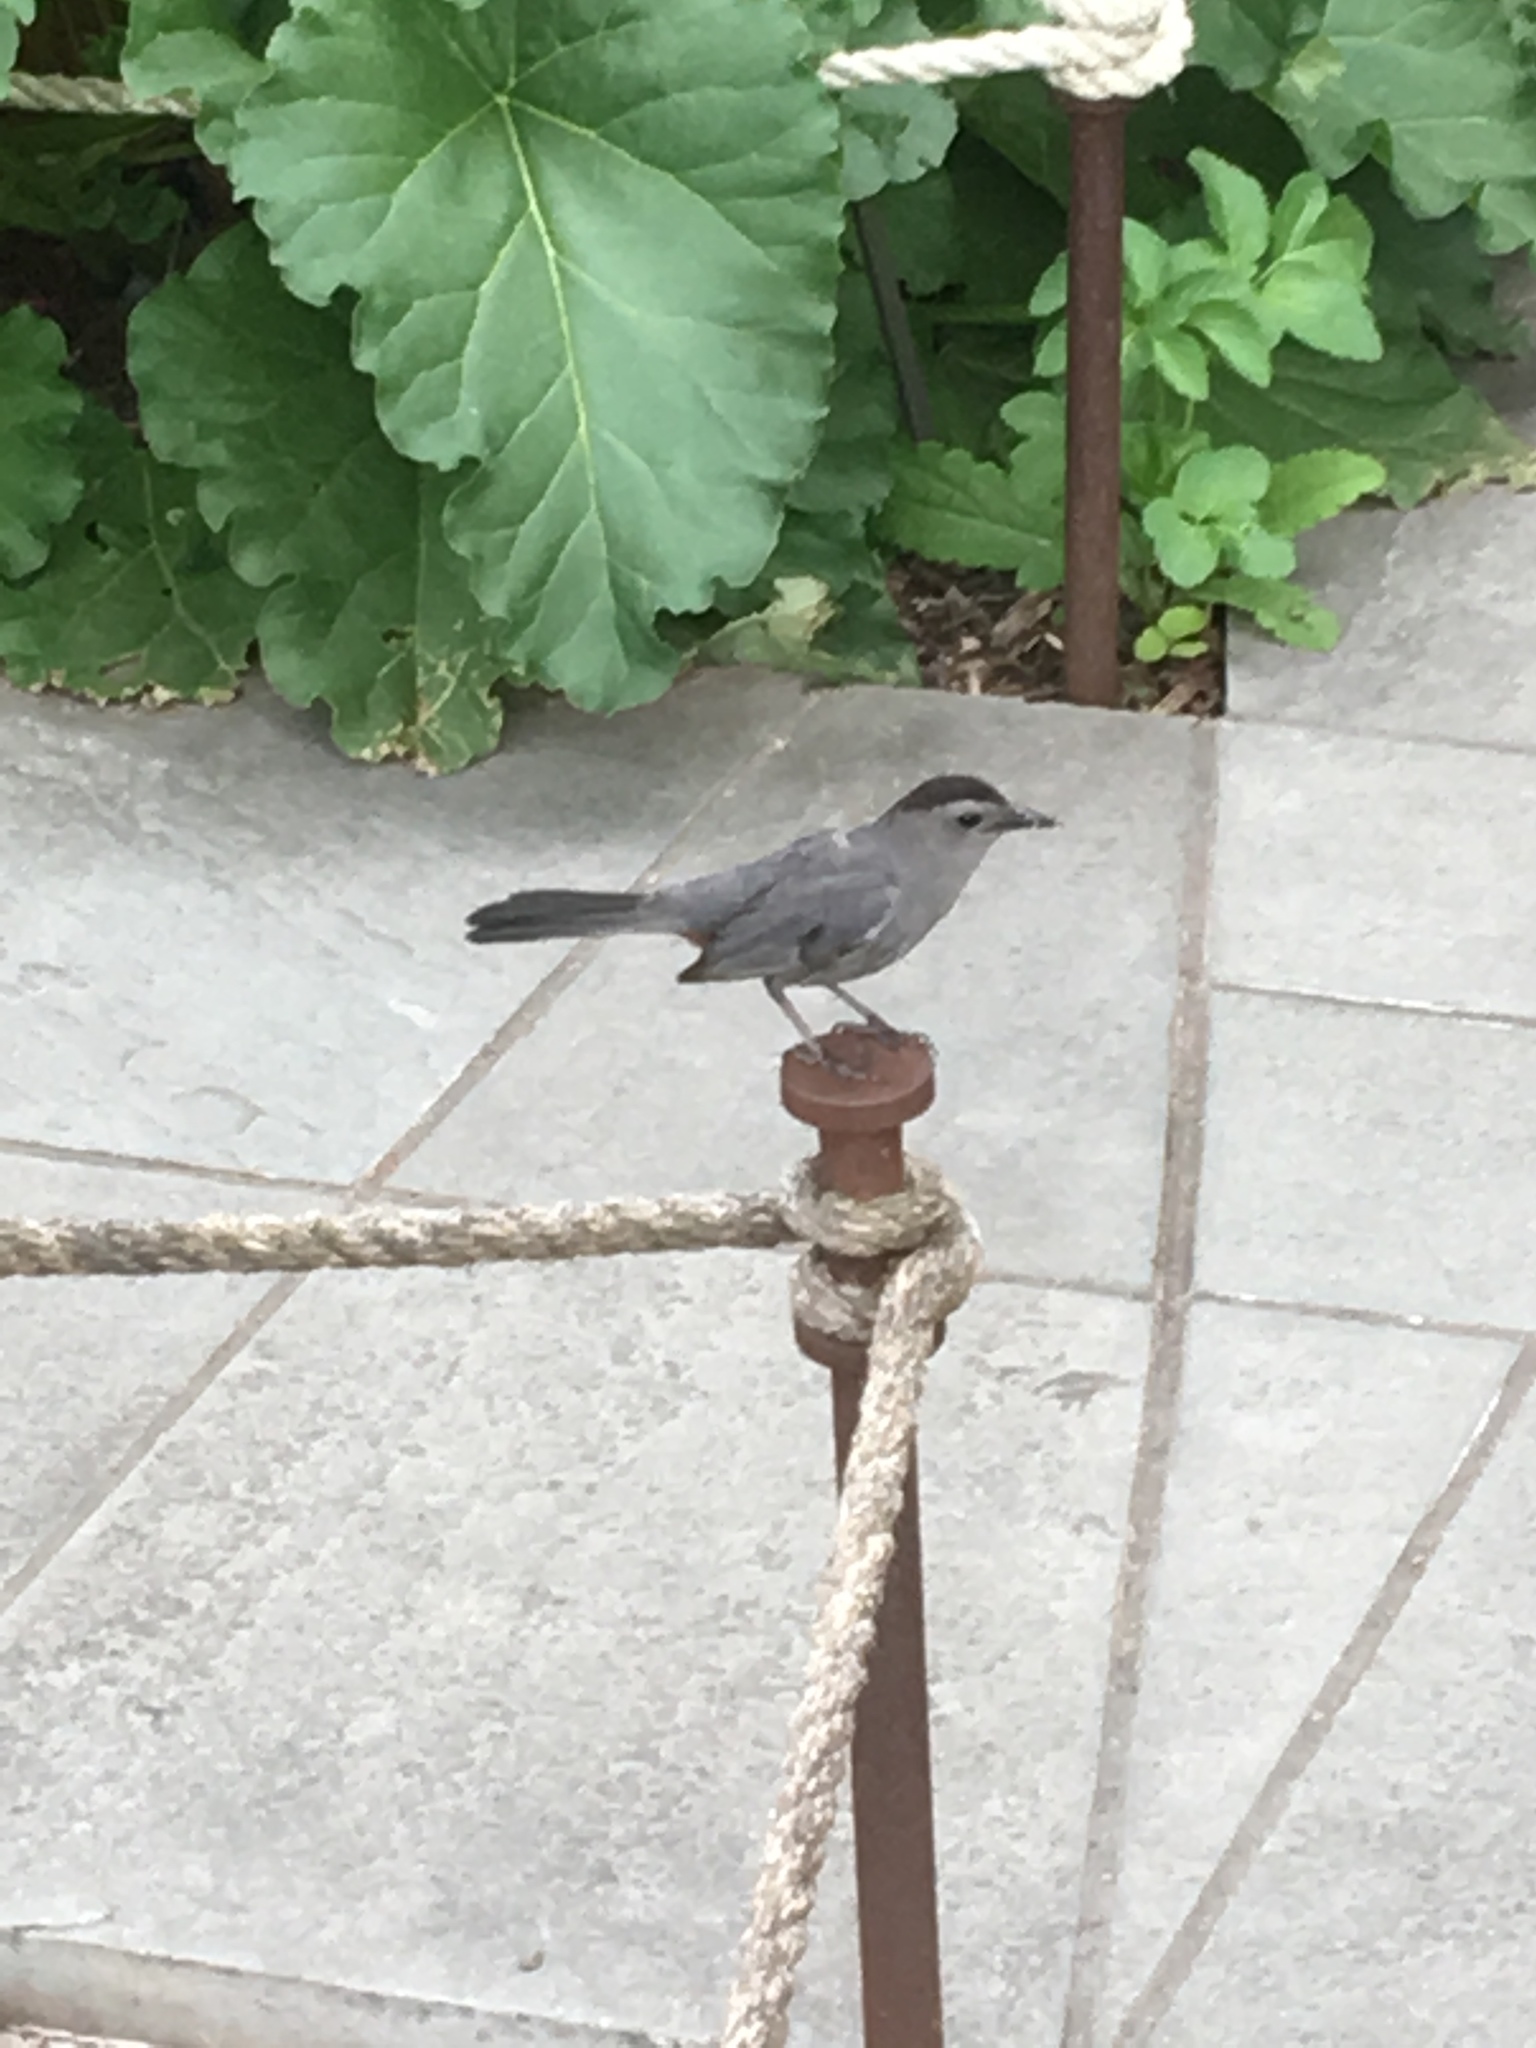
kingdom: Animalia
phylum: Chordata
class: Aves
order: Passeriformes
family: Mimidae
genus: Dumetella
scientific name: Dumetella carolinensis
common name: Gray catbird
